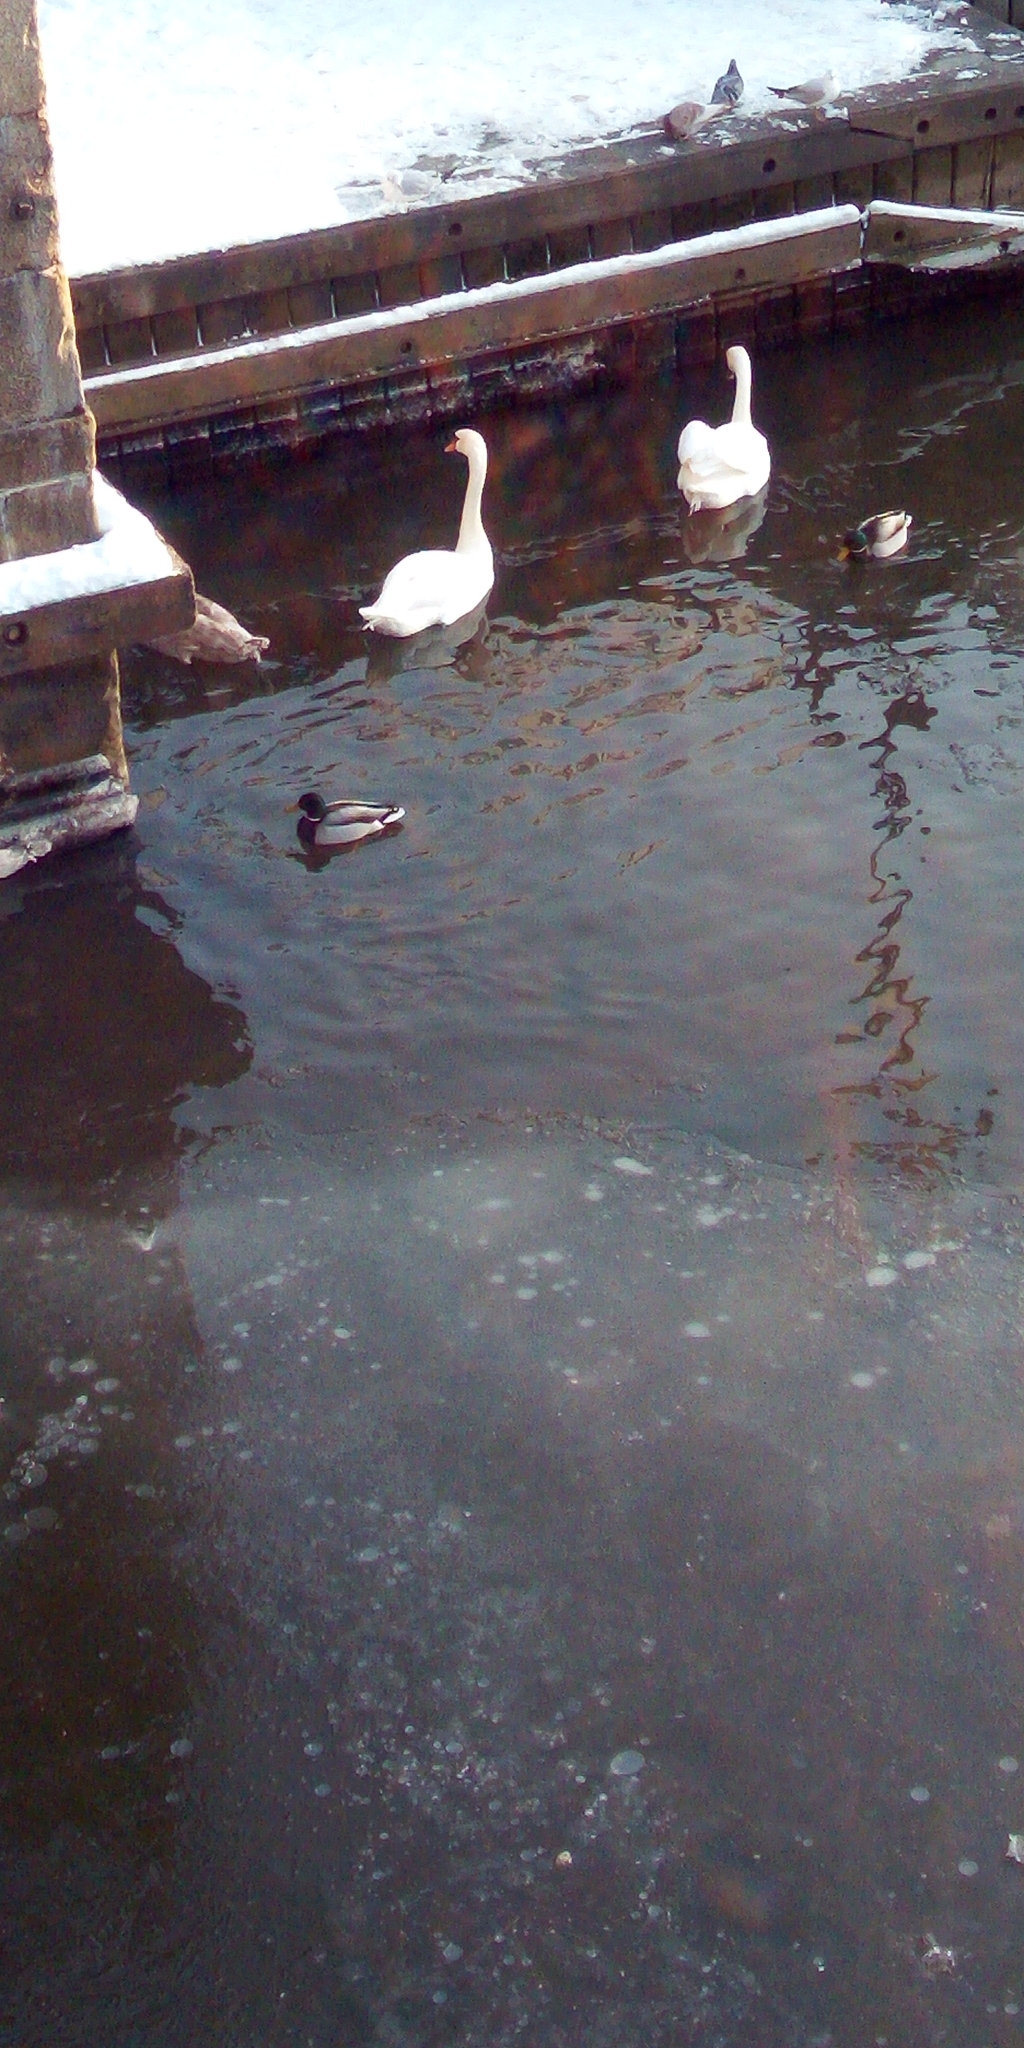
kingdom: Animalia
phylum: Chordata
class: Aves
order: Anseriformes
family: Anatidae
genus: Anas
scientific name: Anas platyrhynchos
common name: Mallard
